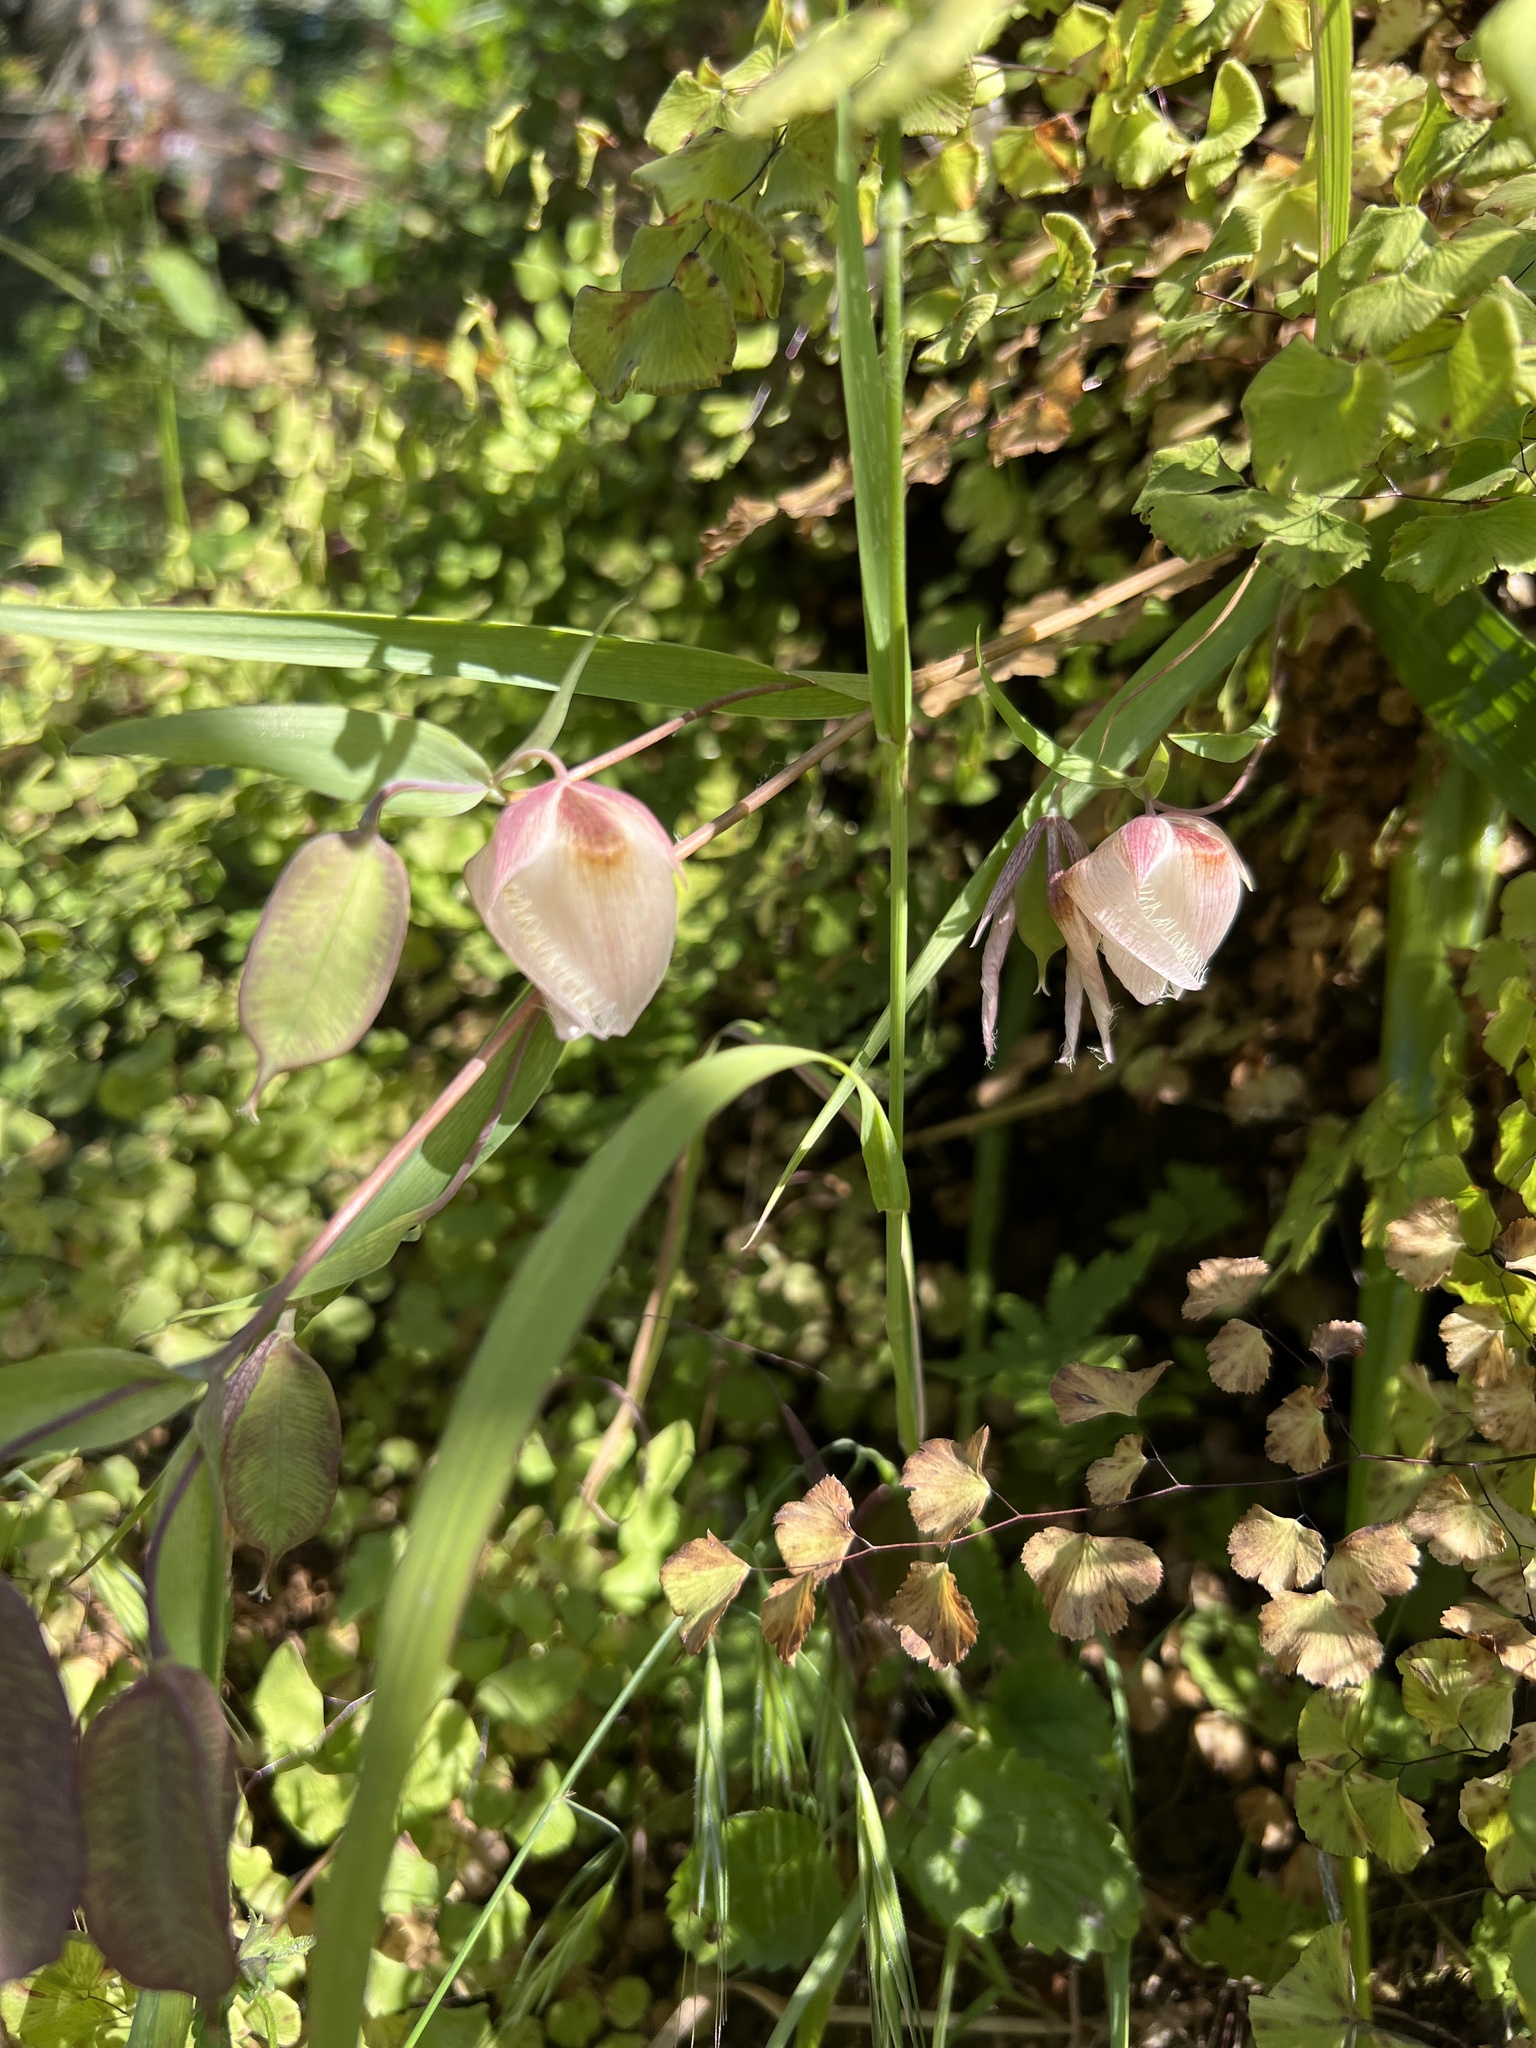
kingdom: Plantae
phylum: Tracheophyta
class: Liliopsida
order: Liliales
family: Liliaceae
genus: Calochortus
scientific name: Calochortus albus
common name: Fairy-lantern
